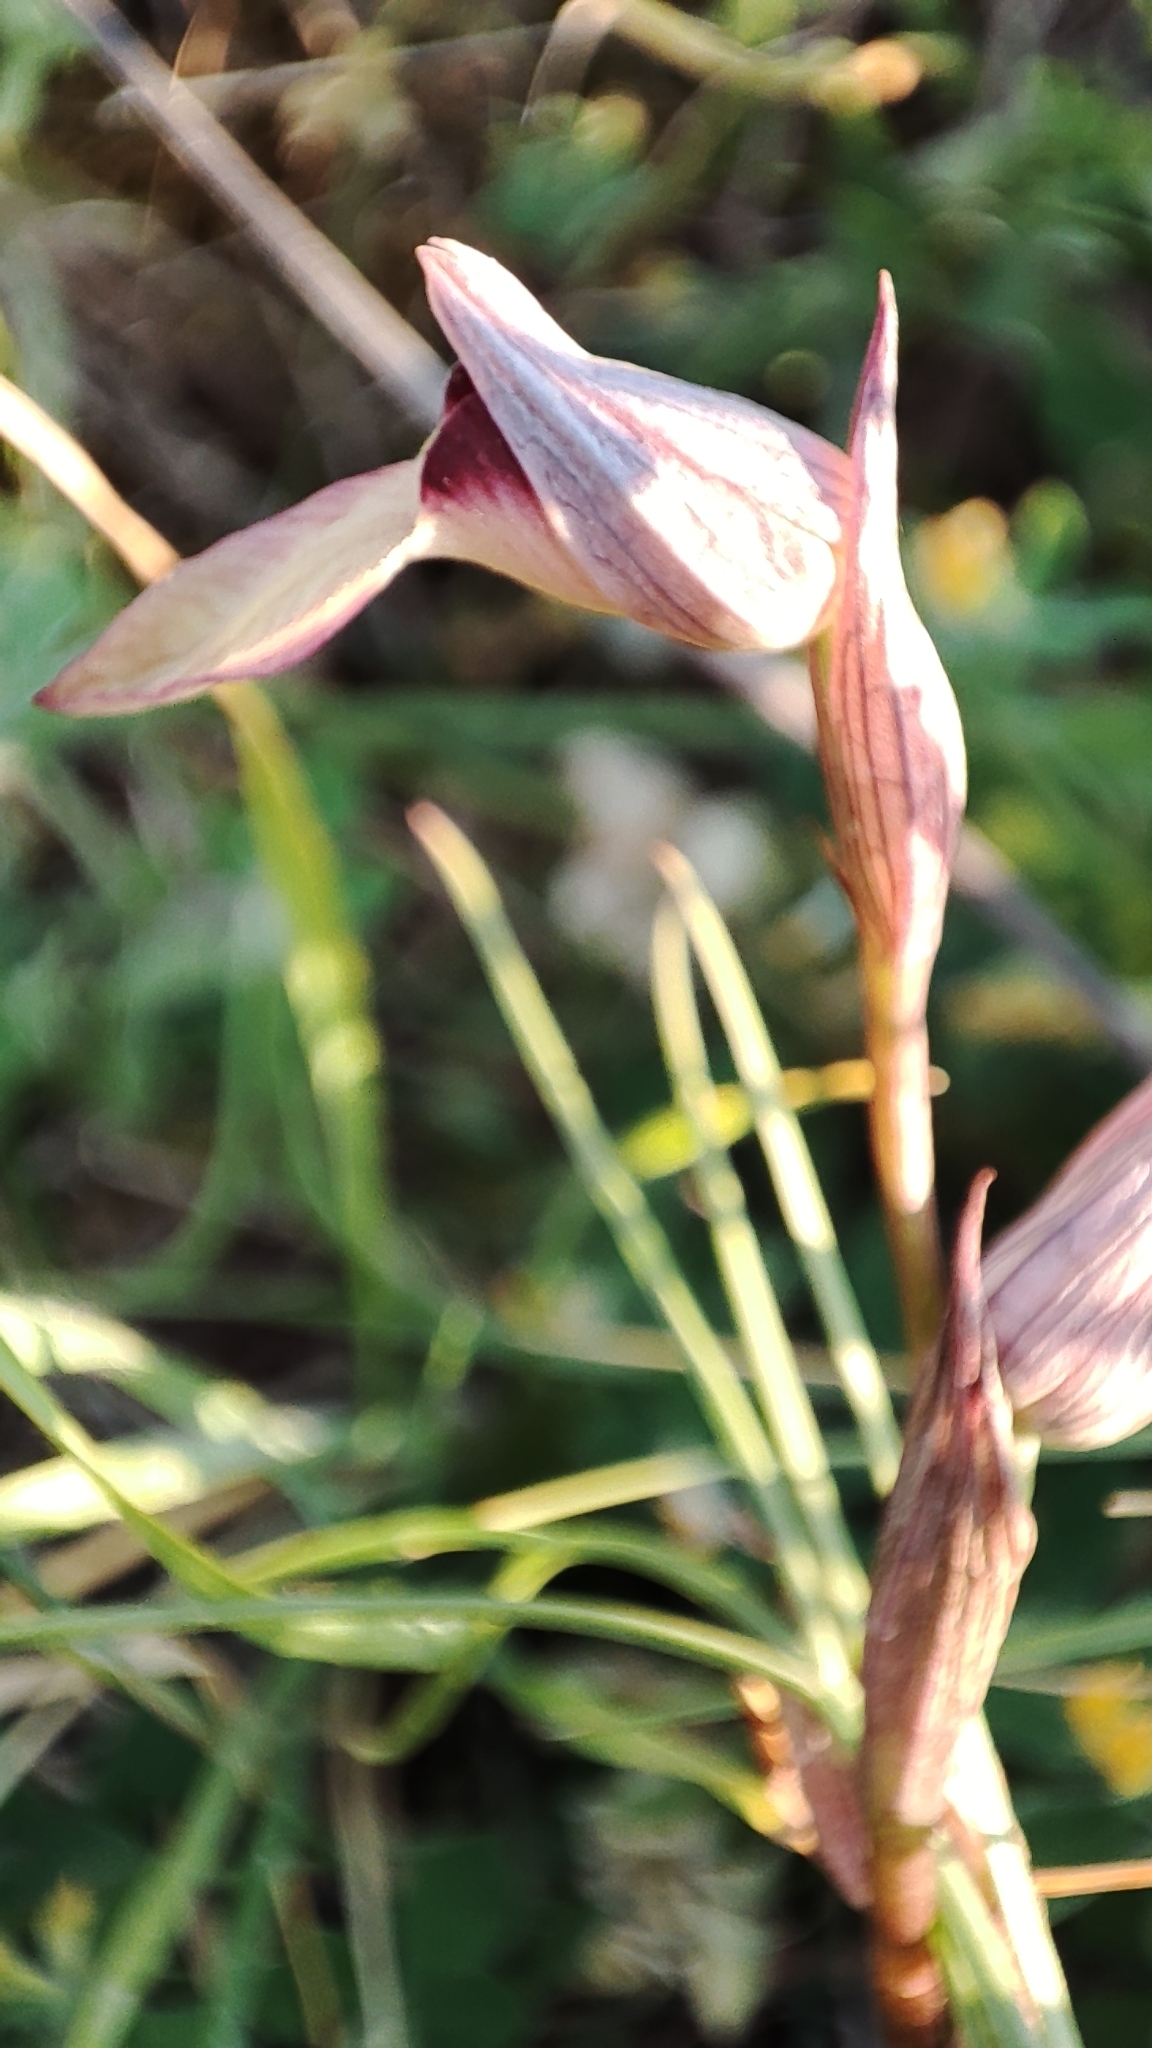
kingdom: Plantae
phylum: Tracheophyta
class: Liliopsida
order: Asparagales
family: Orchidaceae
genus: Serapias
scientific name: Serapias lingua
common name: Tongue-orchid
